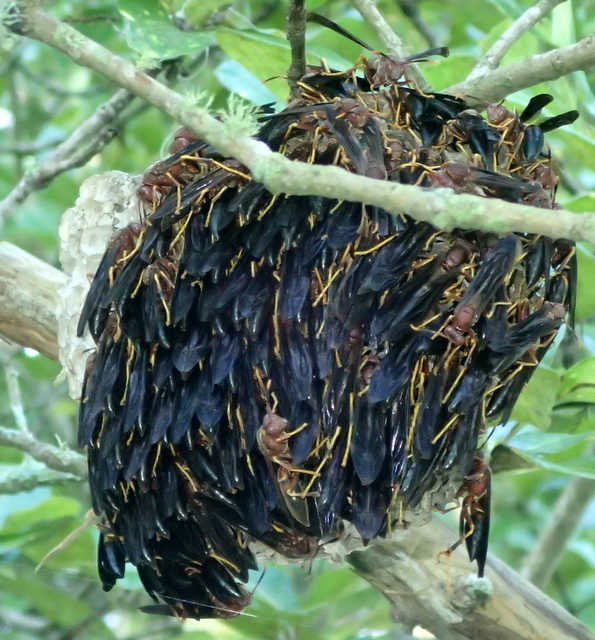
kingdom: Animalia
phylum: Arthropoda
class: Insecta
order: Hymenoptera
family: Eumenidae
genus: Polistes
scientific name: Polistes annularis
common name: Ringed paper wasp
